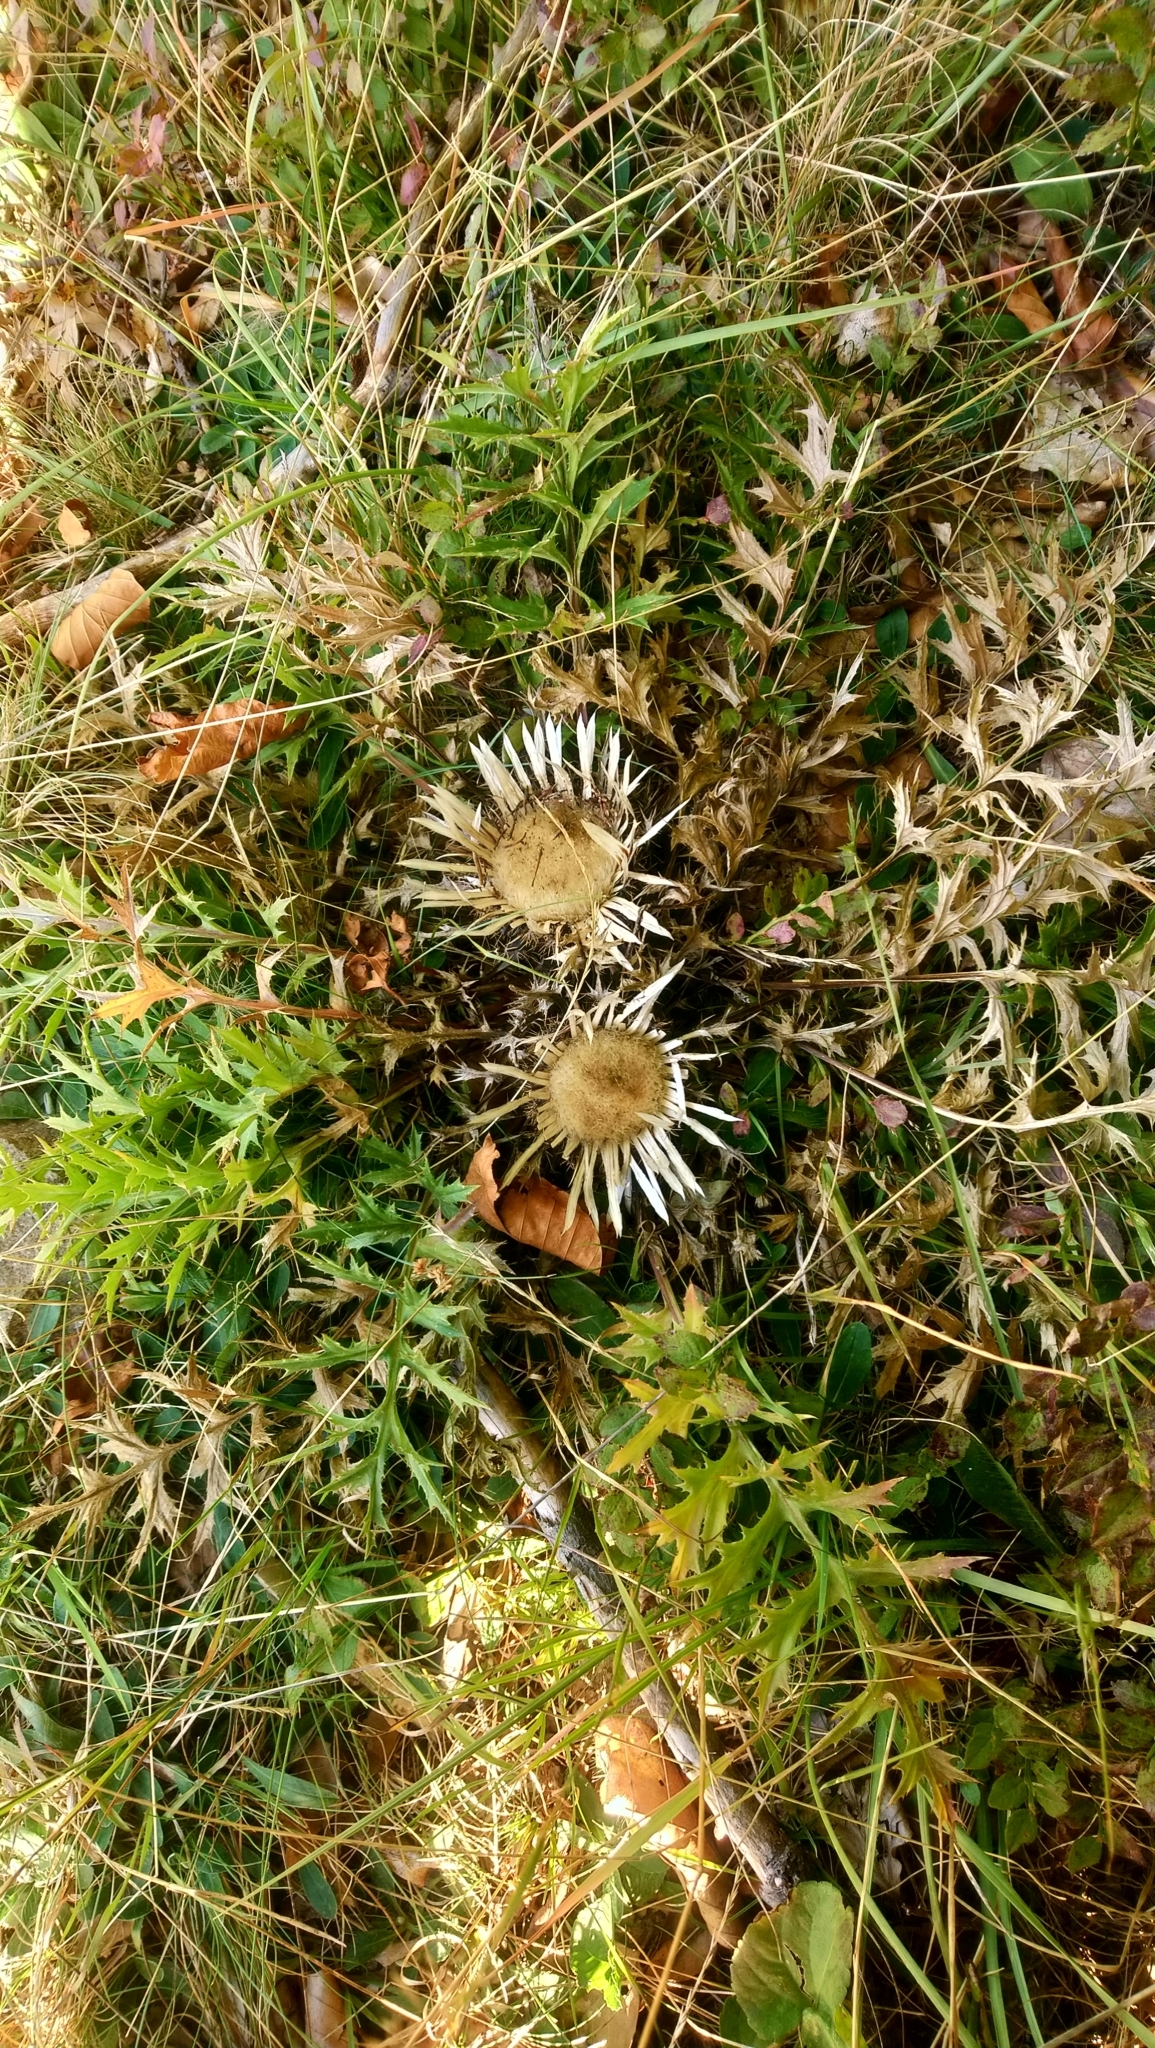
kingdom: Plantae
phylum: Tracheophyta
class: Magnoliopsida
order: Asterales
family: Asteraceae
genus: Carlina
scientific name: Carlina acaulis
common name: Stemless carline thistle
